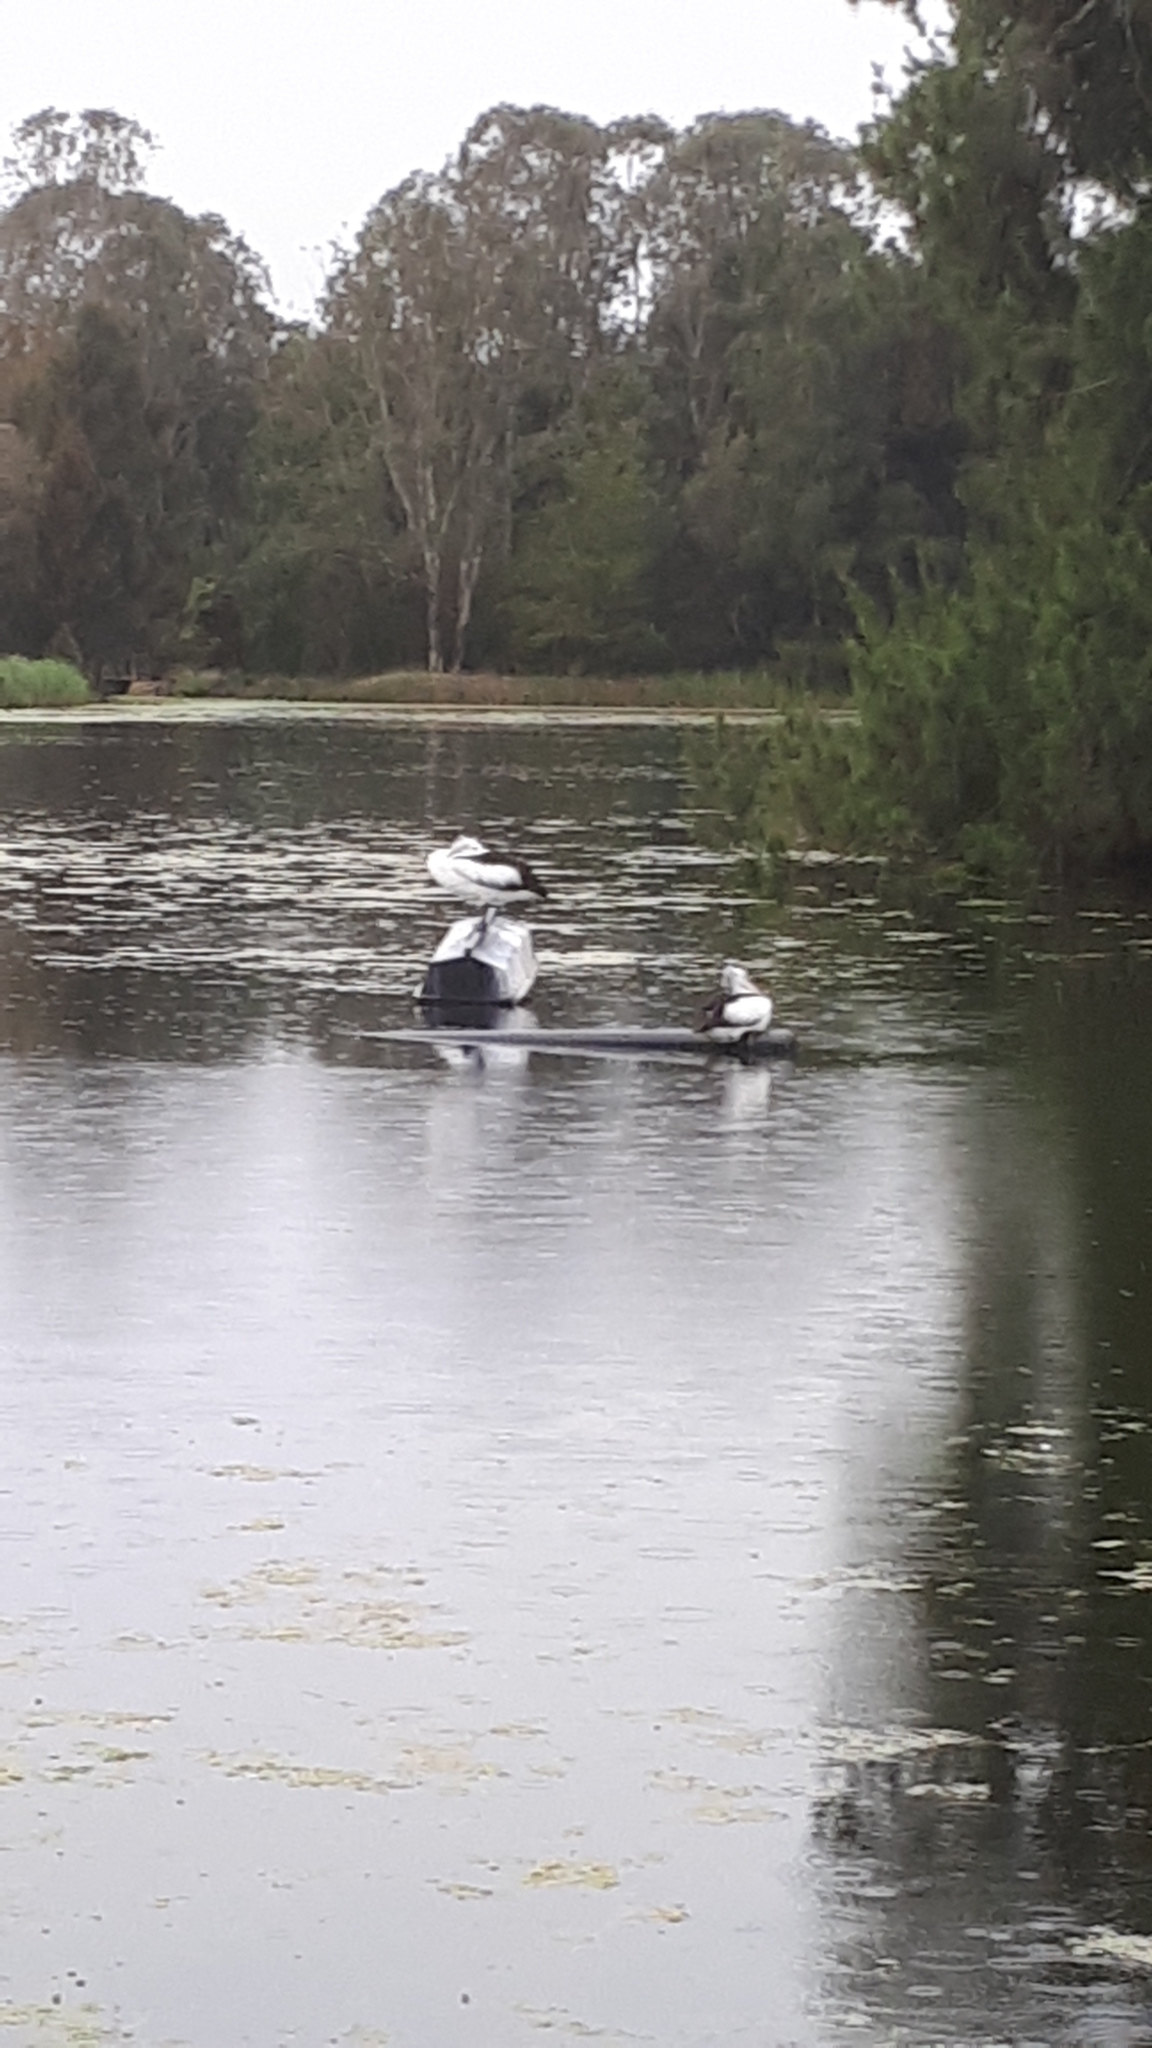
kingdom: Animalia
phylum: Chordata
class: Aves
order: Pelecaniformes
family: Pelecanidae
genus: Pelecanus
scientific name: Pelecanus conspicillatus
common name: Australian pelican
